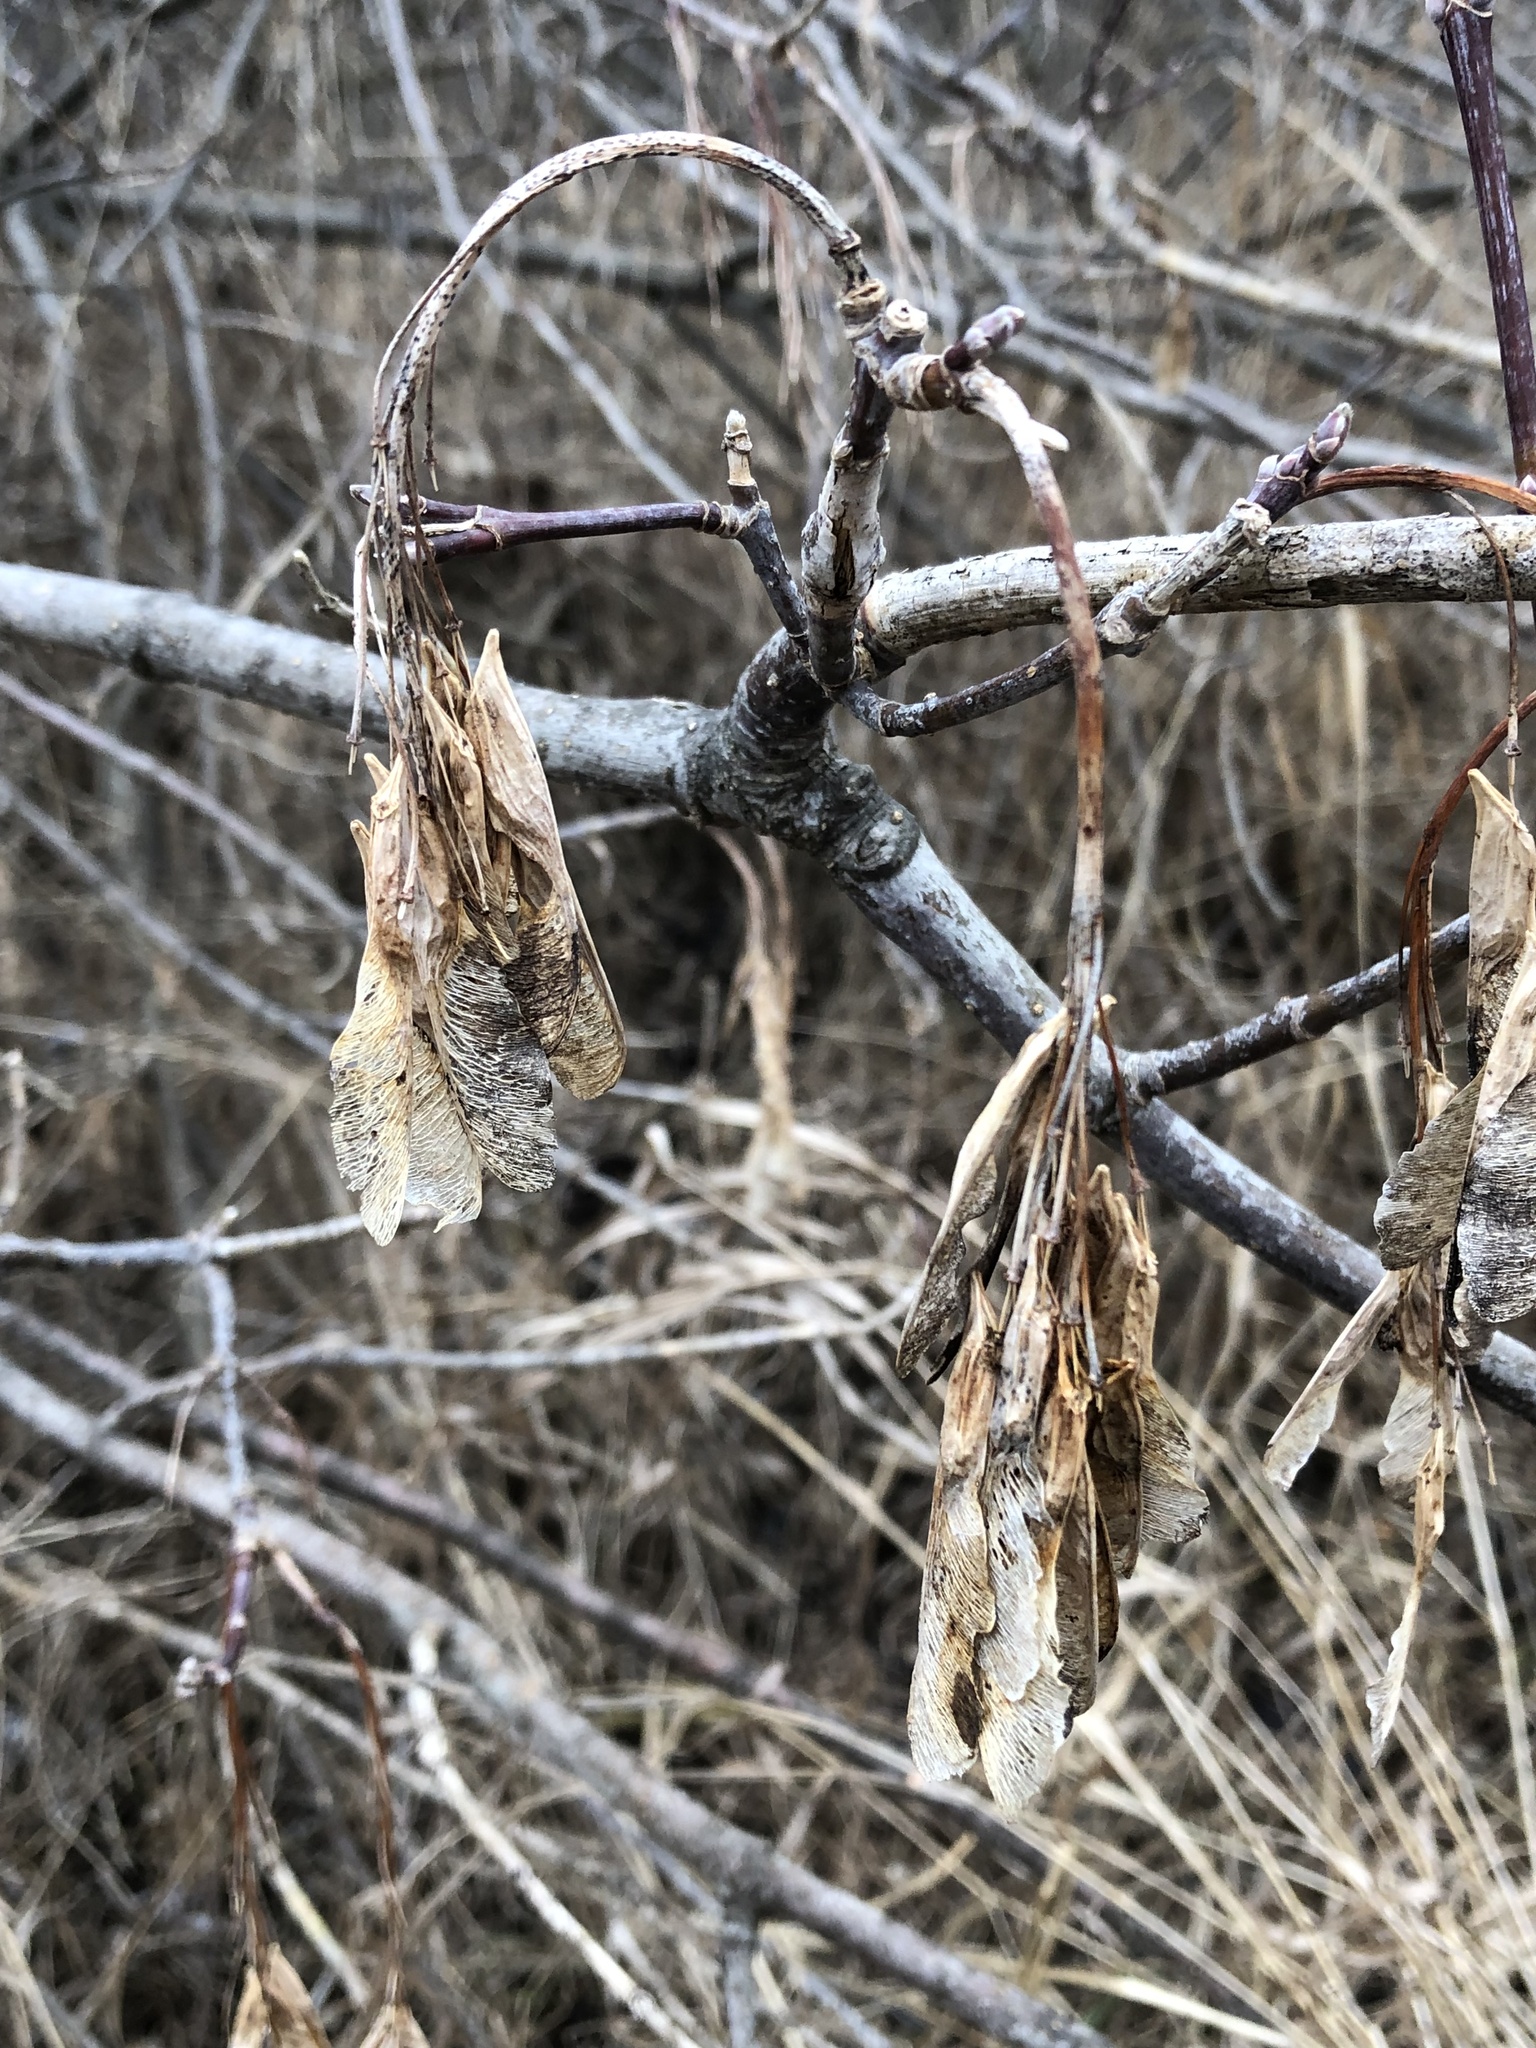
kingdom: Plantae
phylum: Tracheophyta
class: Magnoliopsida
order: Sapindales
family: Sapindaceae
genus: Acer
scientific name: Acer negundo
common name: Ashleaf maple
